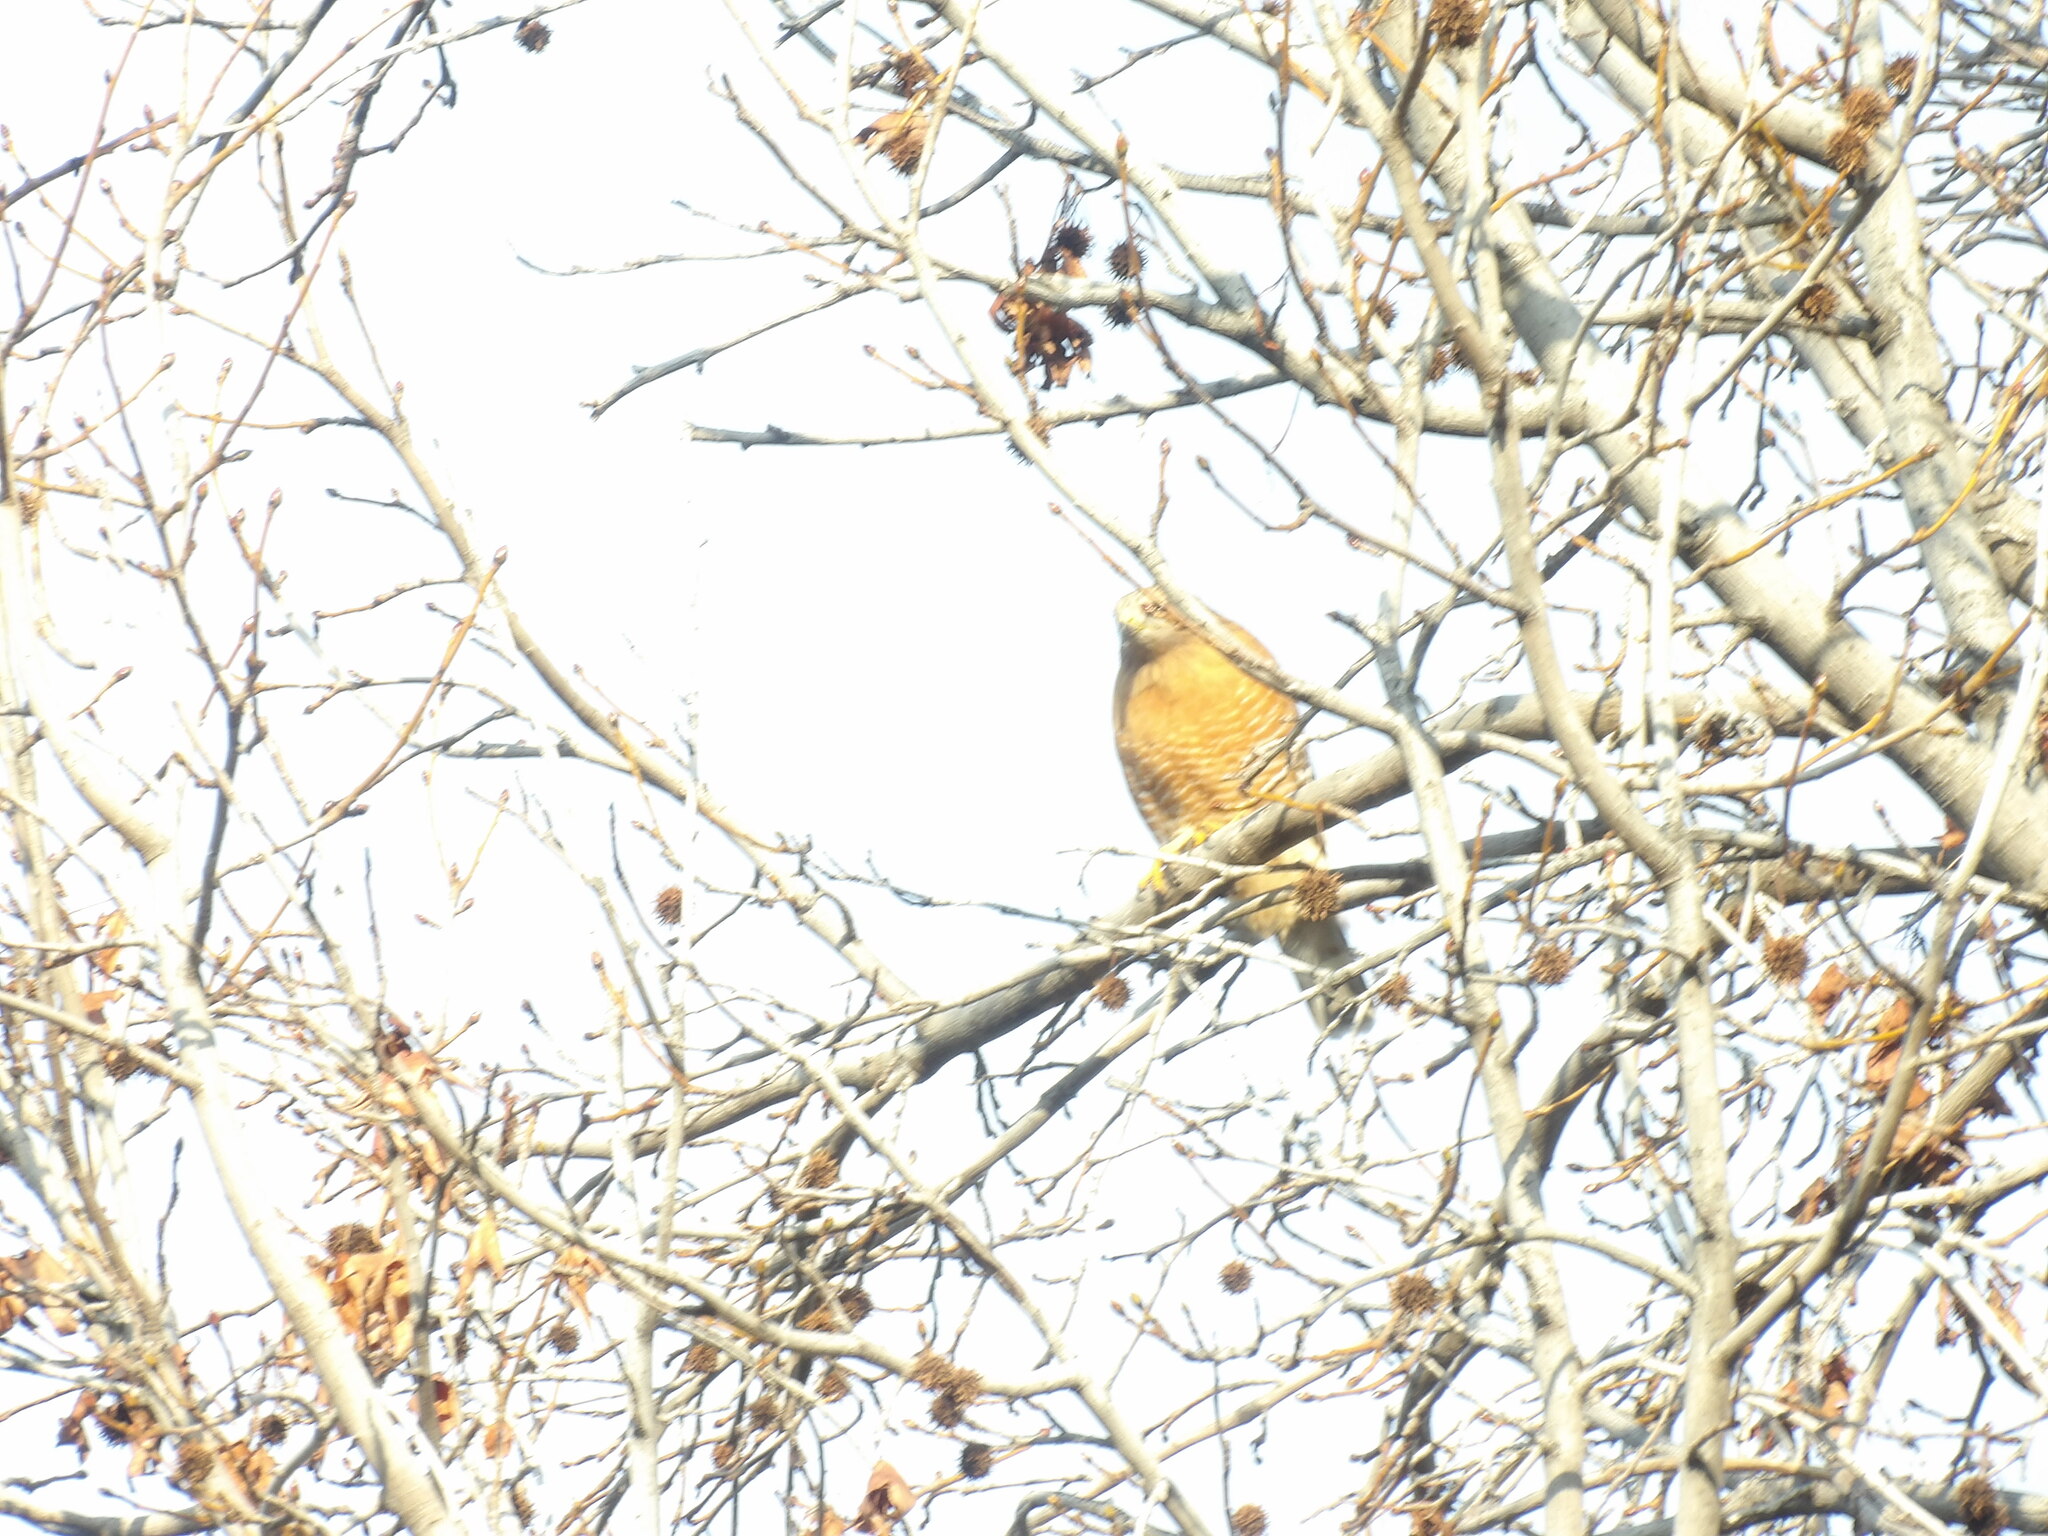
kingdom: Animalia
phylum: Chordata
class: Aves
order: Accipitriformes
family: Accipitridae
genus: Buteo
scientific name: Buteo lineatus
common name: Red-shouldered hawk
